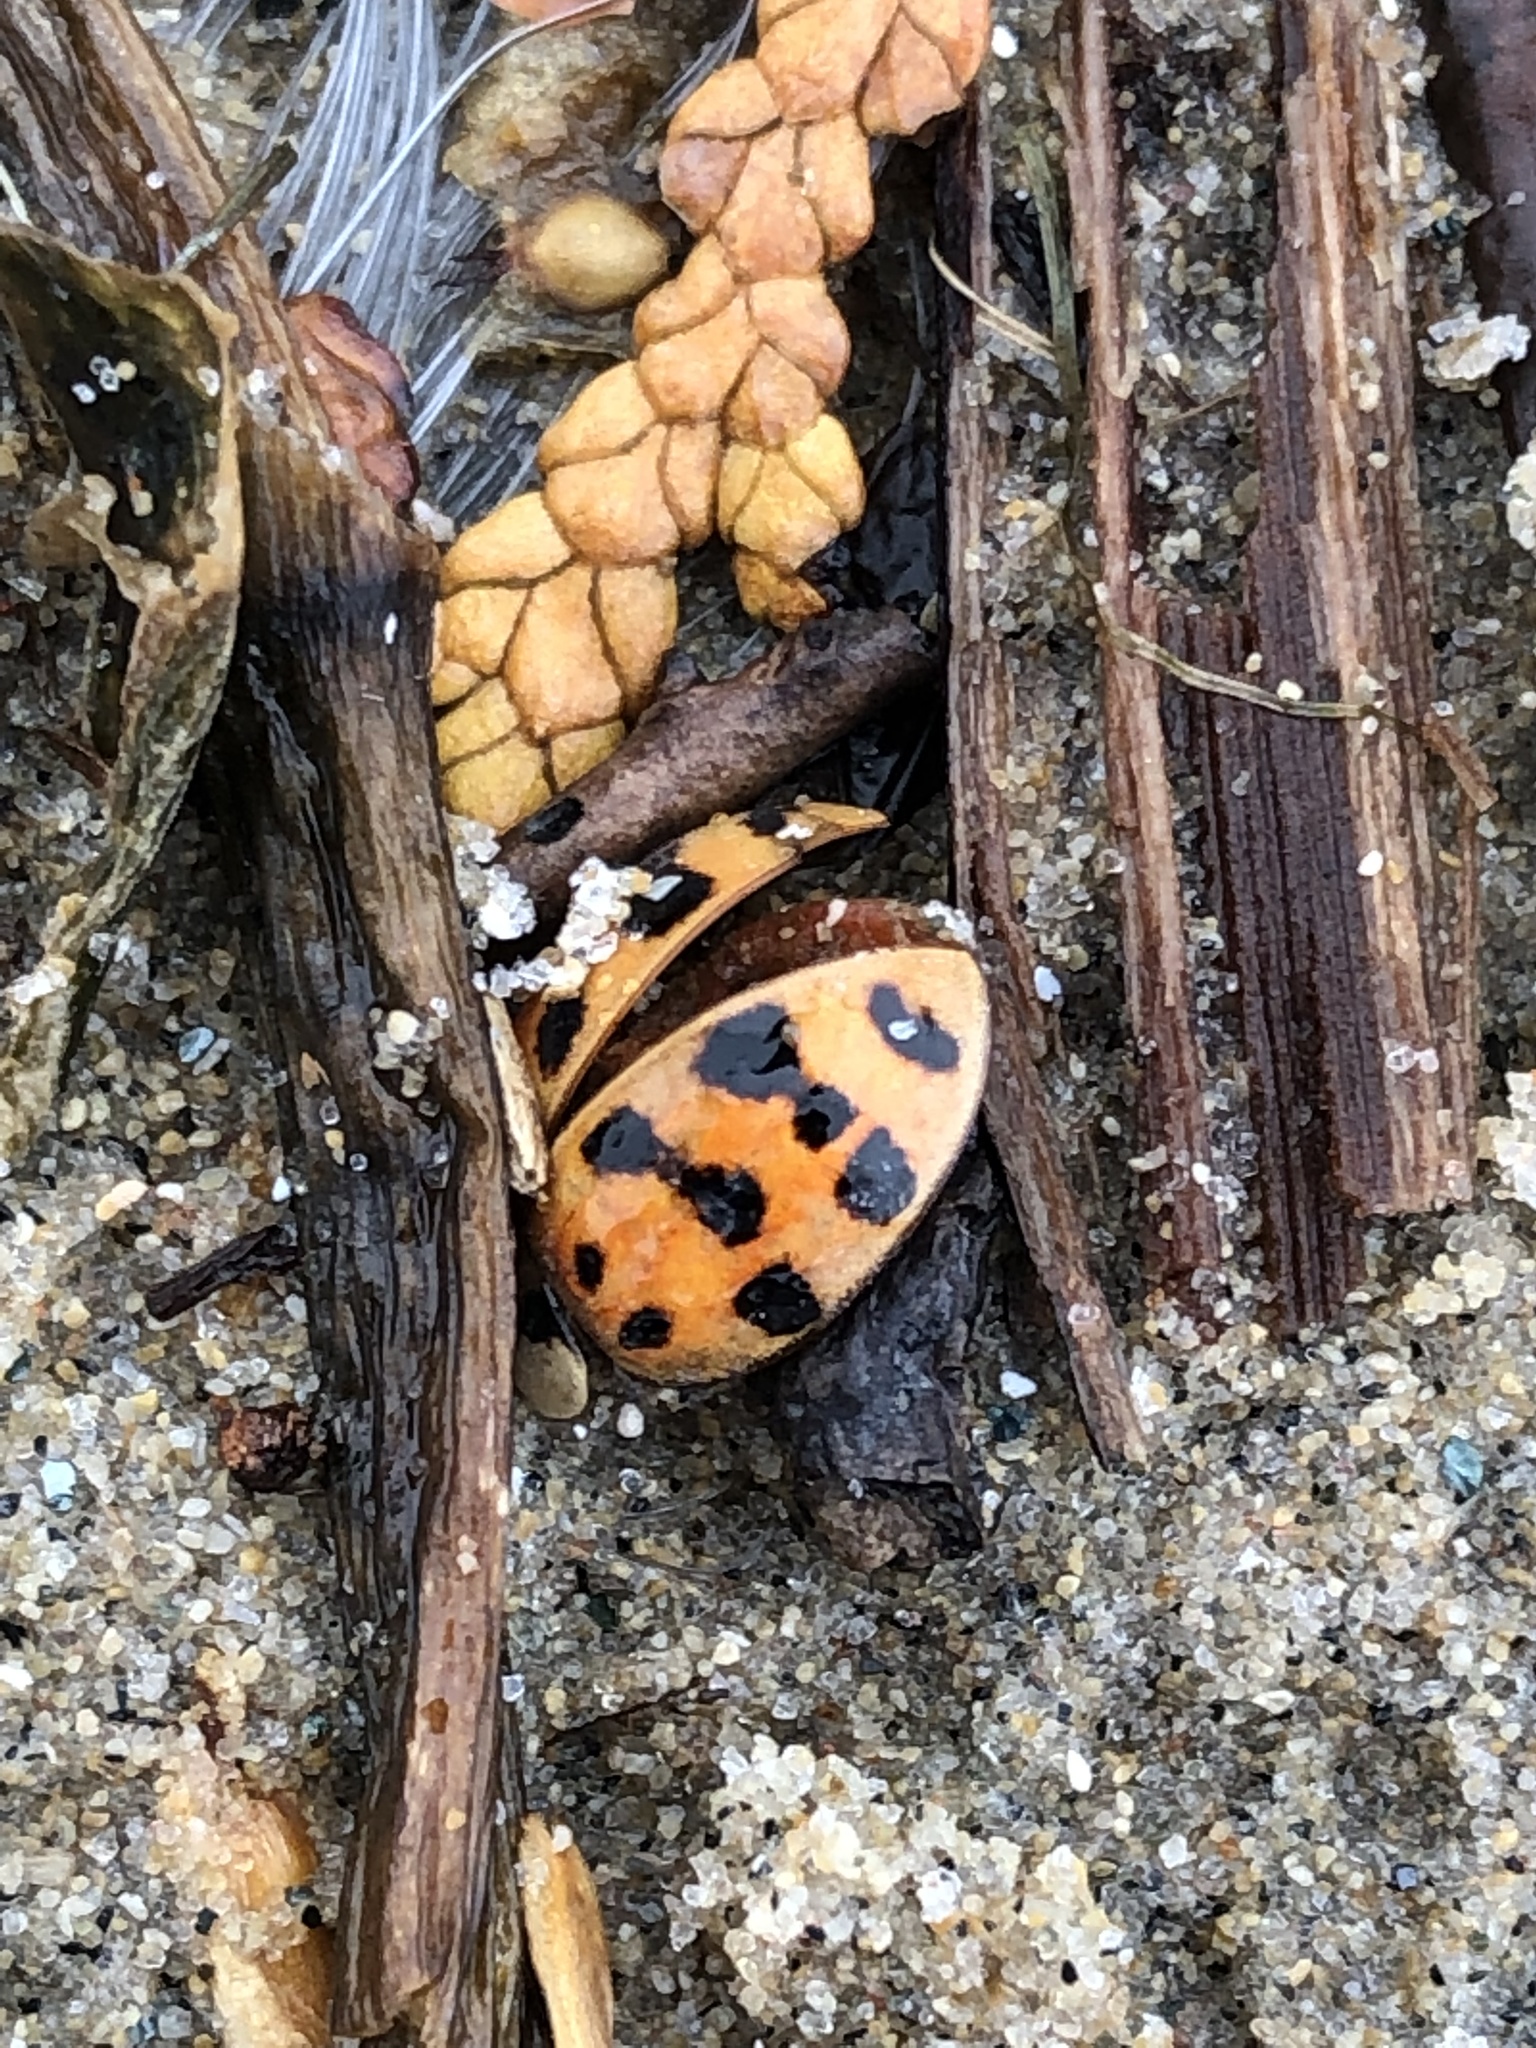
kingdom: Animalia
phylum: Arthropoda
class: Insecta
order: Coleoptera
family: Coccinellidae
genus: Harmonia
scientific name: Harmonia axyridis
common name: Harlequin ladybird
